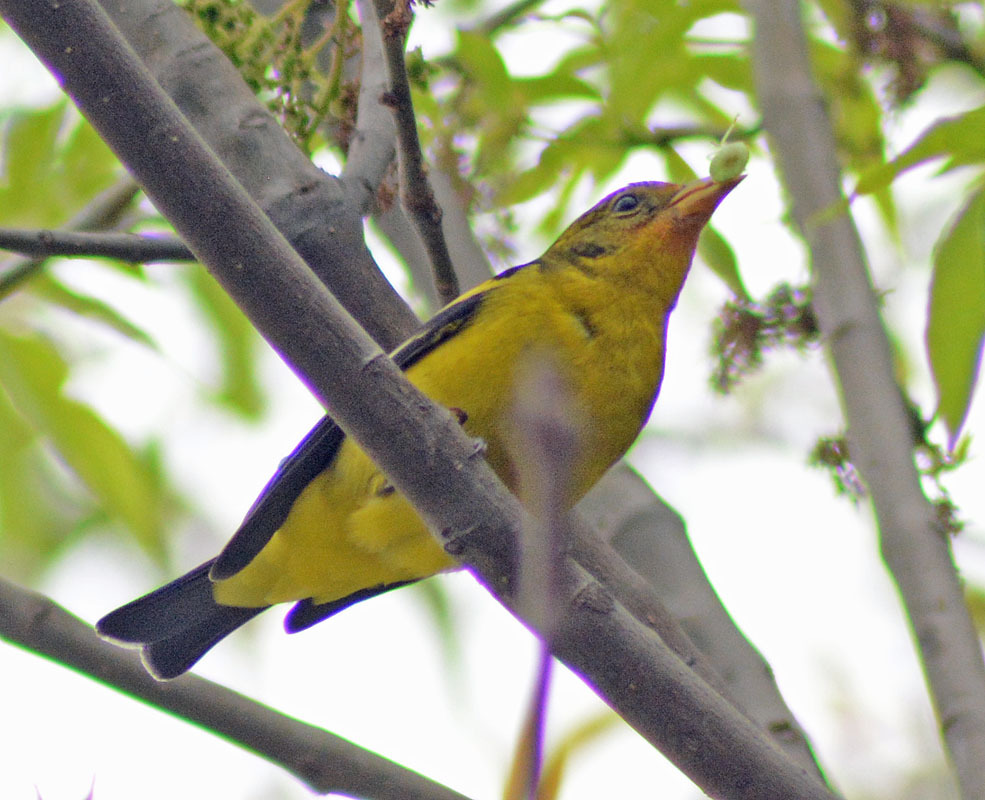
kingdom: Animalia
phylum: Chordata
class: Aves
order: Passeriformes
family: Cardinalidae
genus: Piranga
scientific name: Piranga ludoviciana
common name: Western tanager
